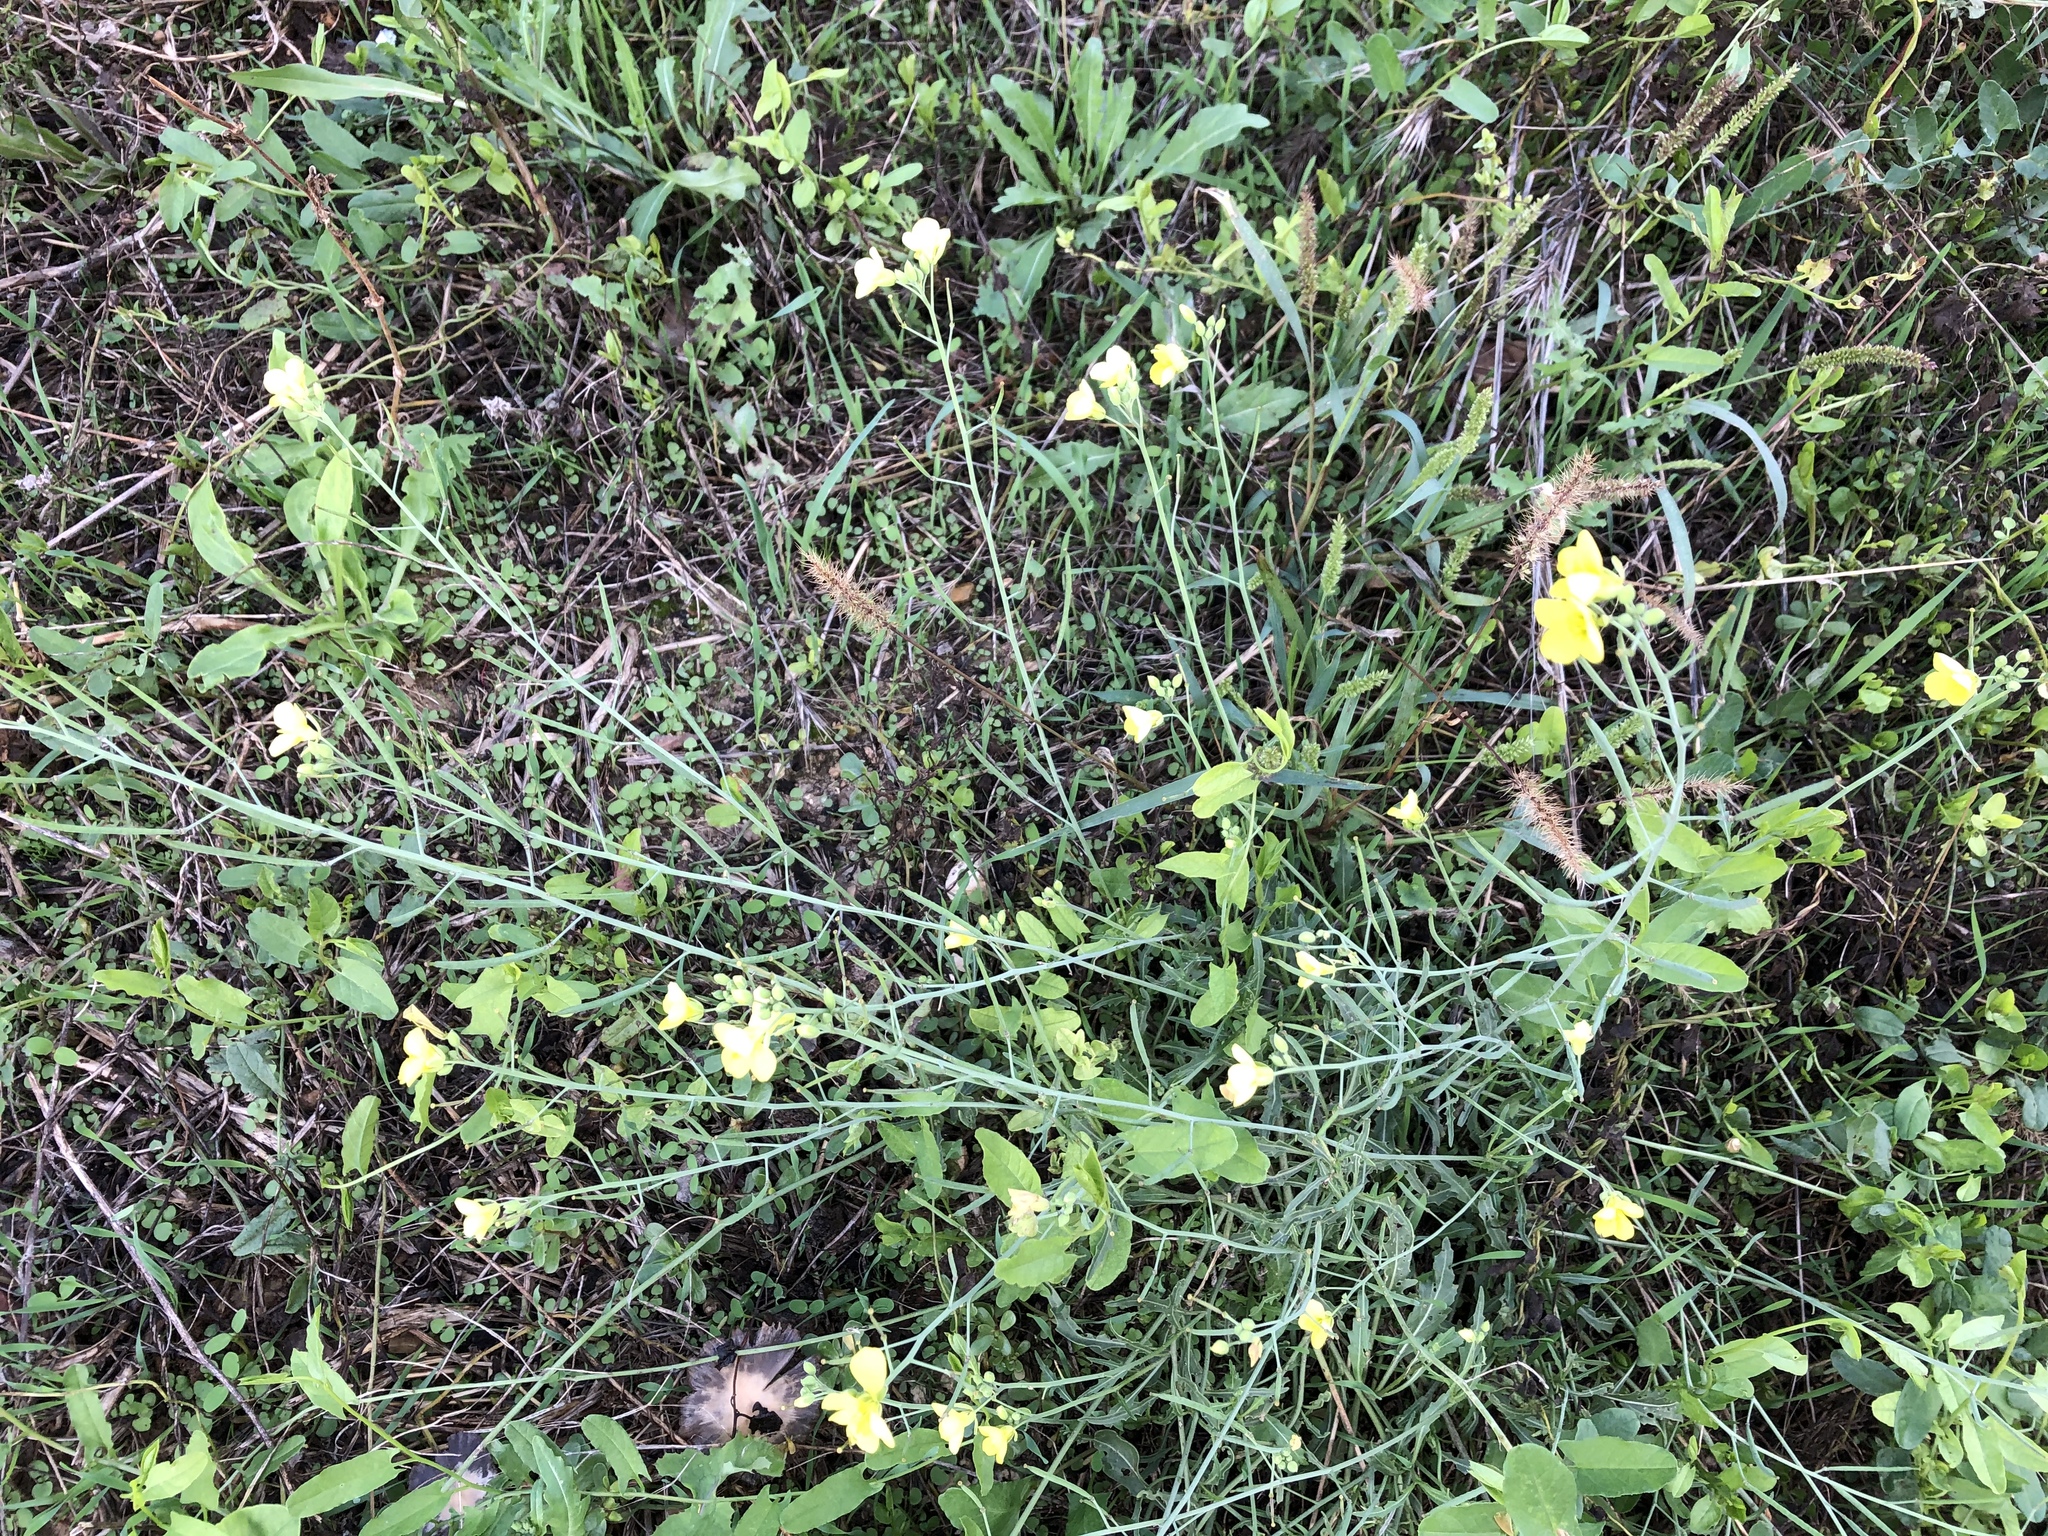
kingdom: Plantae
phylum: Tracheophyta
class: Magnoliopsida
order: Brassicales
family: Brassicaceae
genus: Diplotaxis
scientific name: Diplotaxis tenuifolia
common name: Perennial wall-rocket
